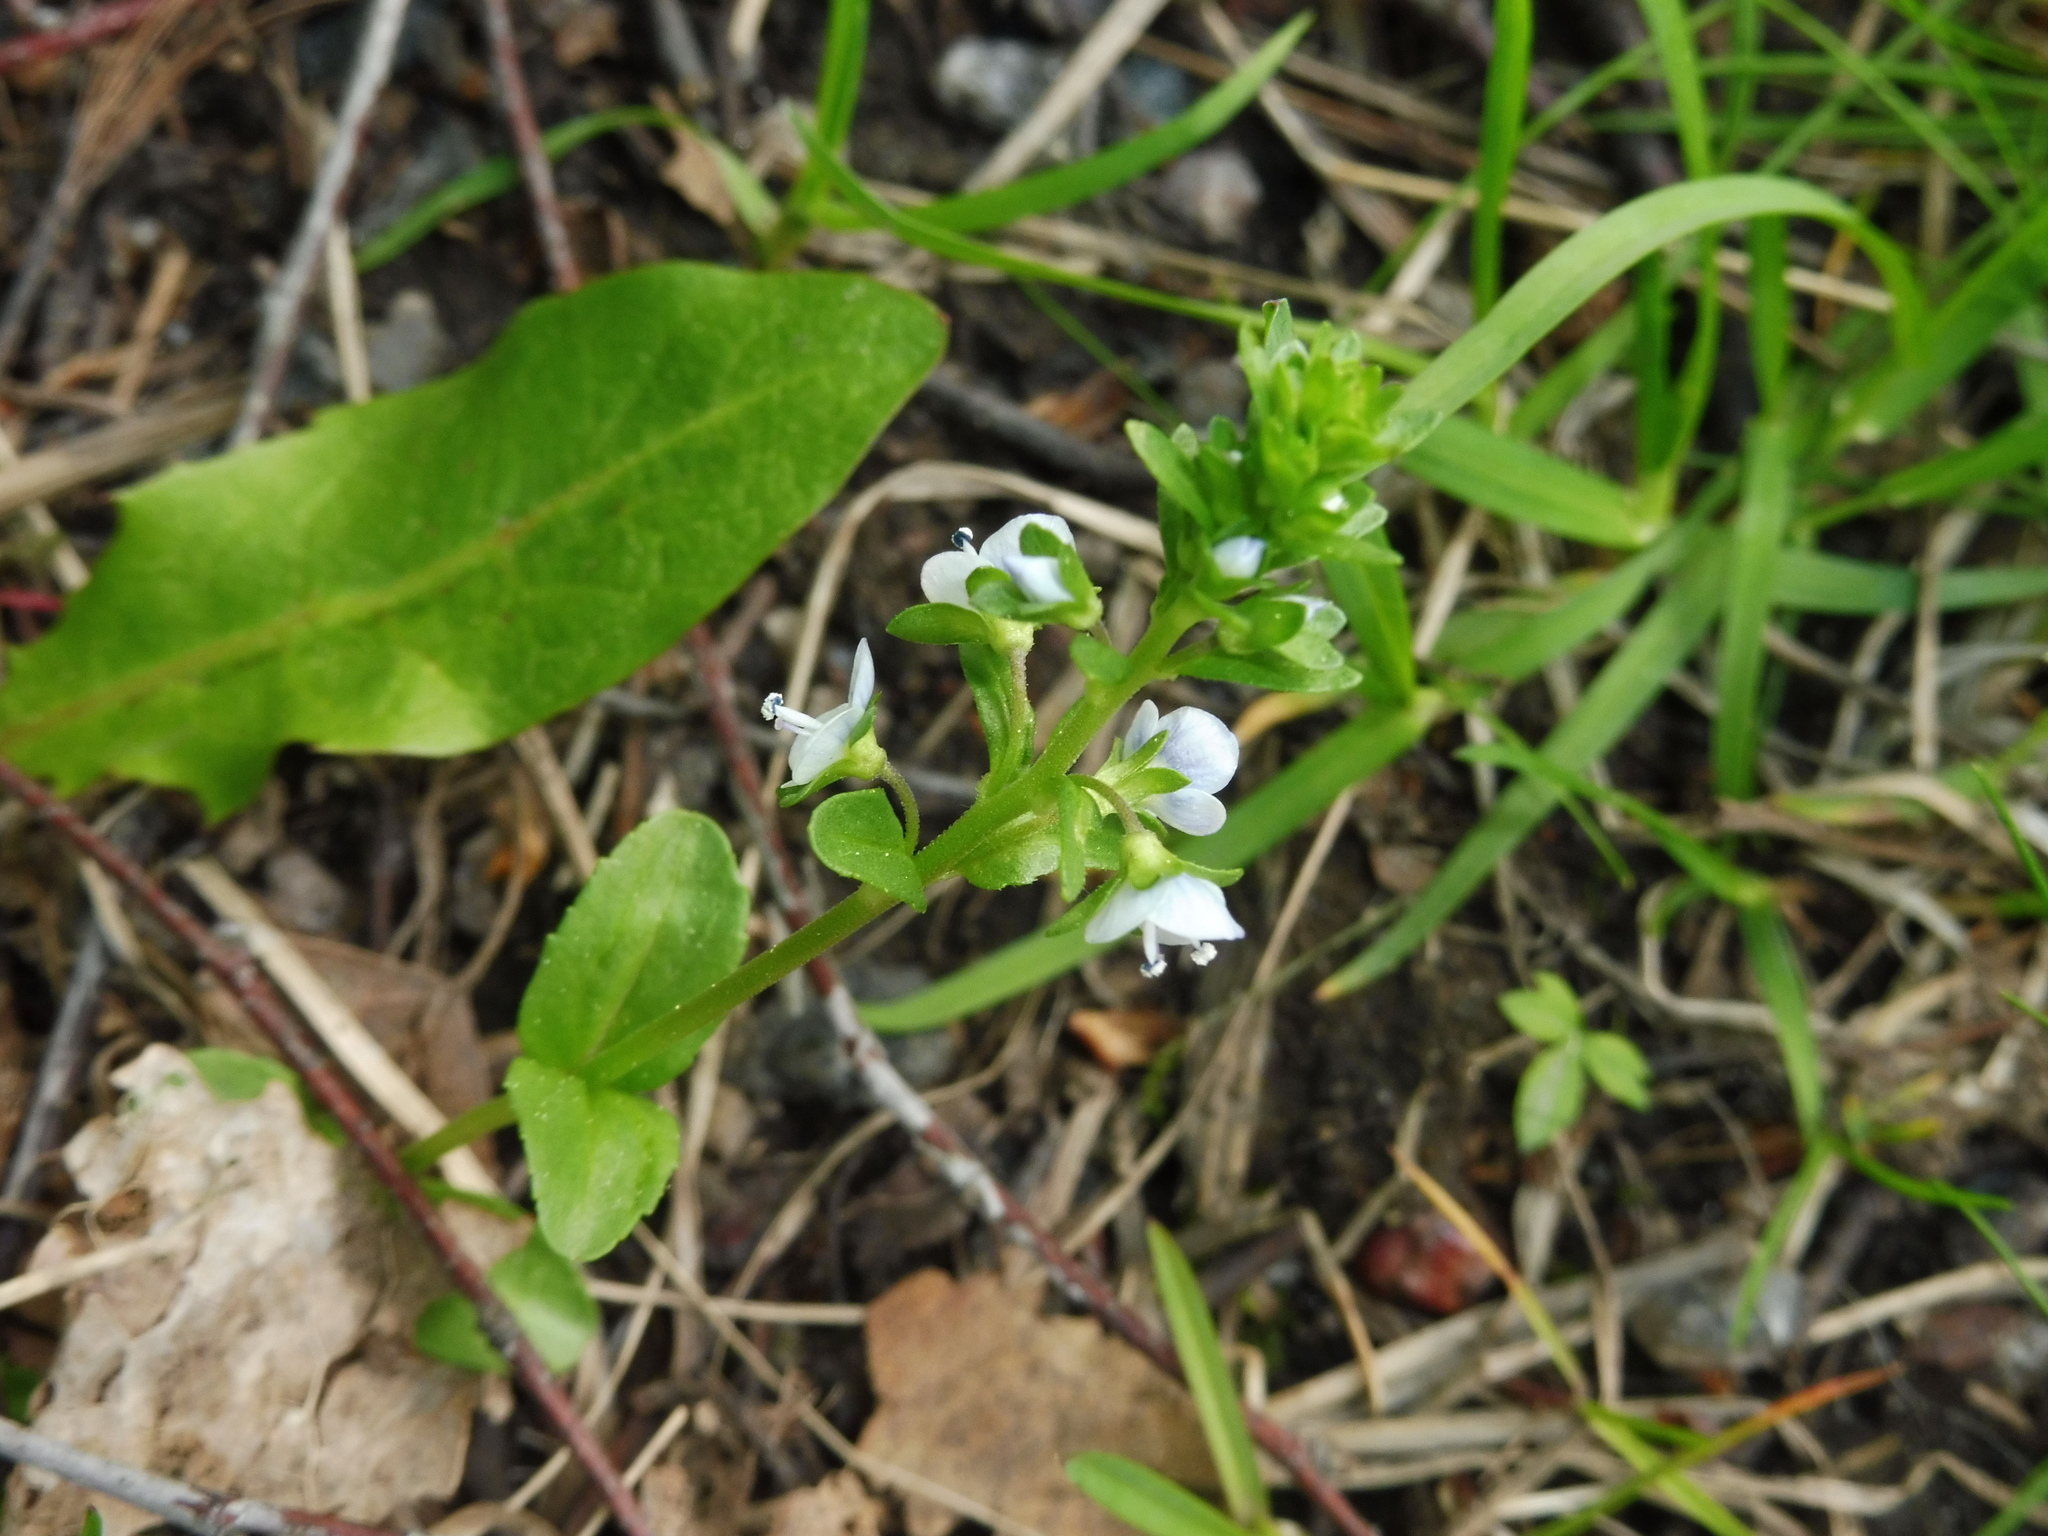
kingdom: Plantae
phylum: Tracheophyta
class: Magnoliopsida
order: Lamiales
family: Plantaginaceae
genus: Veronica
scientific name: Veronica serpyllifolia
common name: Thyme-leaved speedwell
